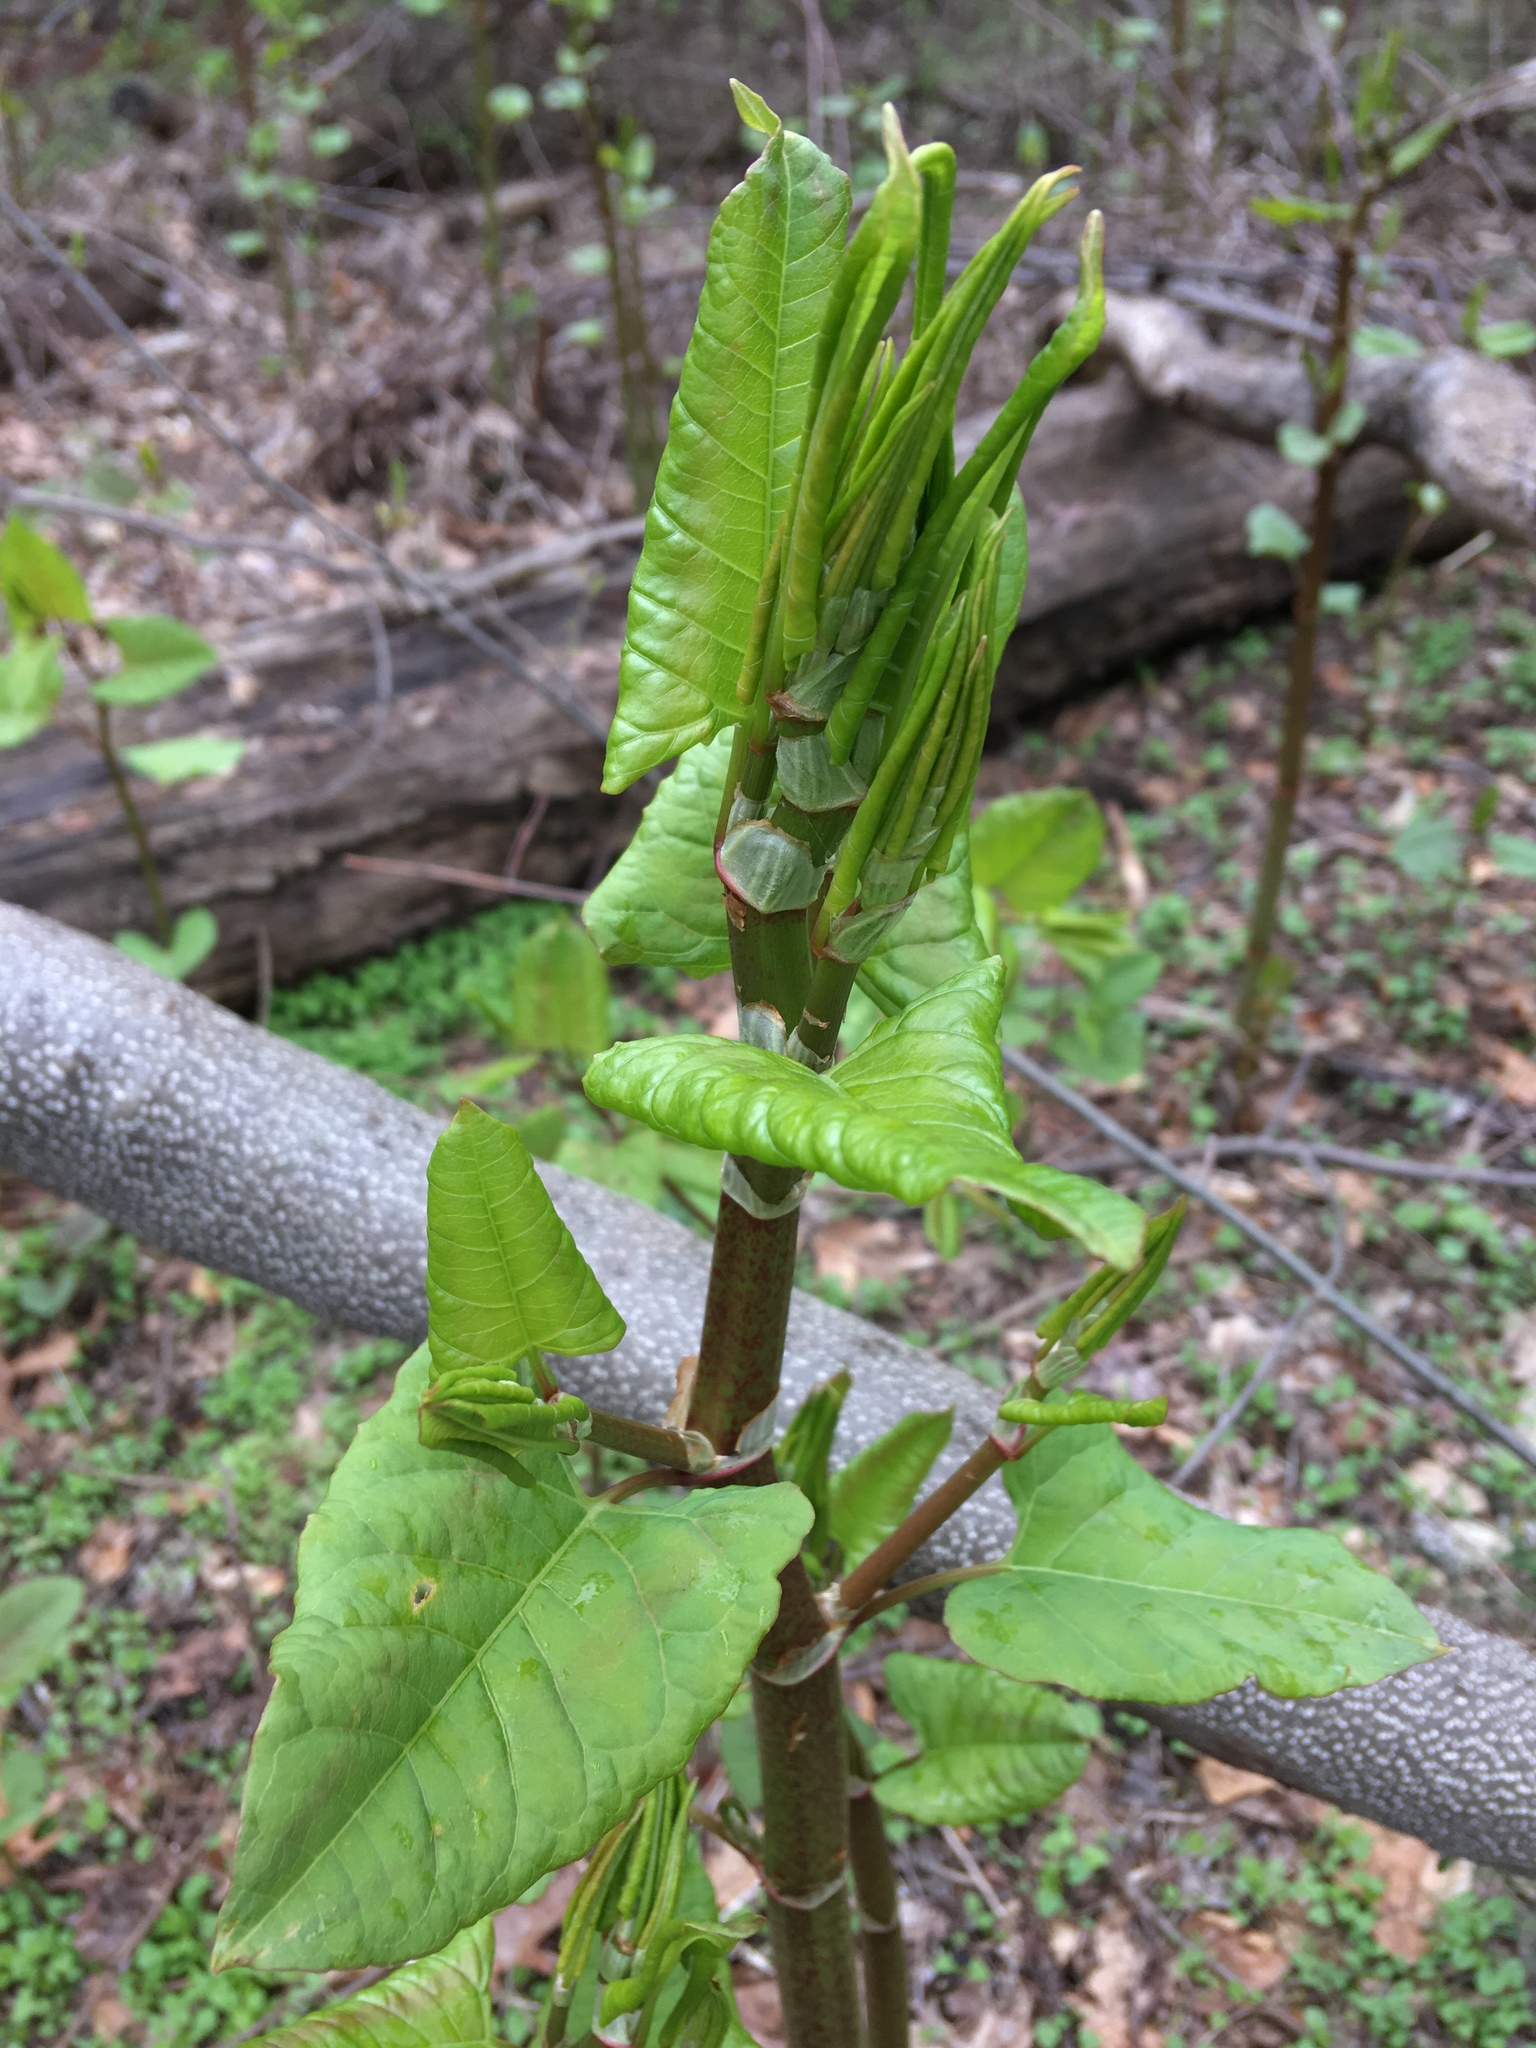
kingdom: Plantae
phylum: Tracheophyta
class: Magnoliopsida
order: Caryophyllales
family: Polygonaceae
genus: Reynoutria
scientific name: Reynoutria japonica
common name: Japanese knotweed
